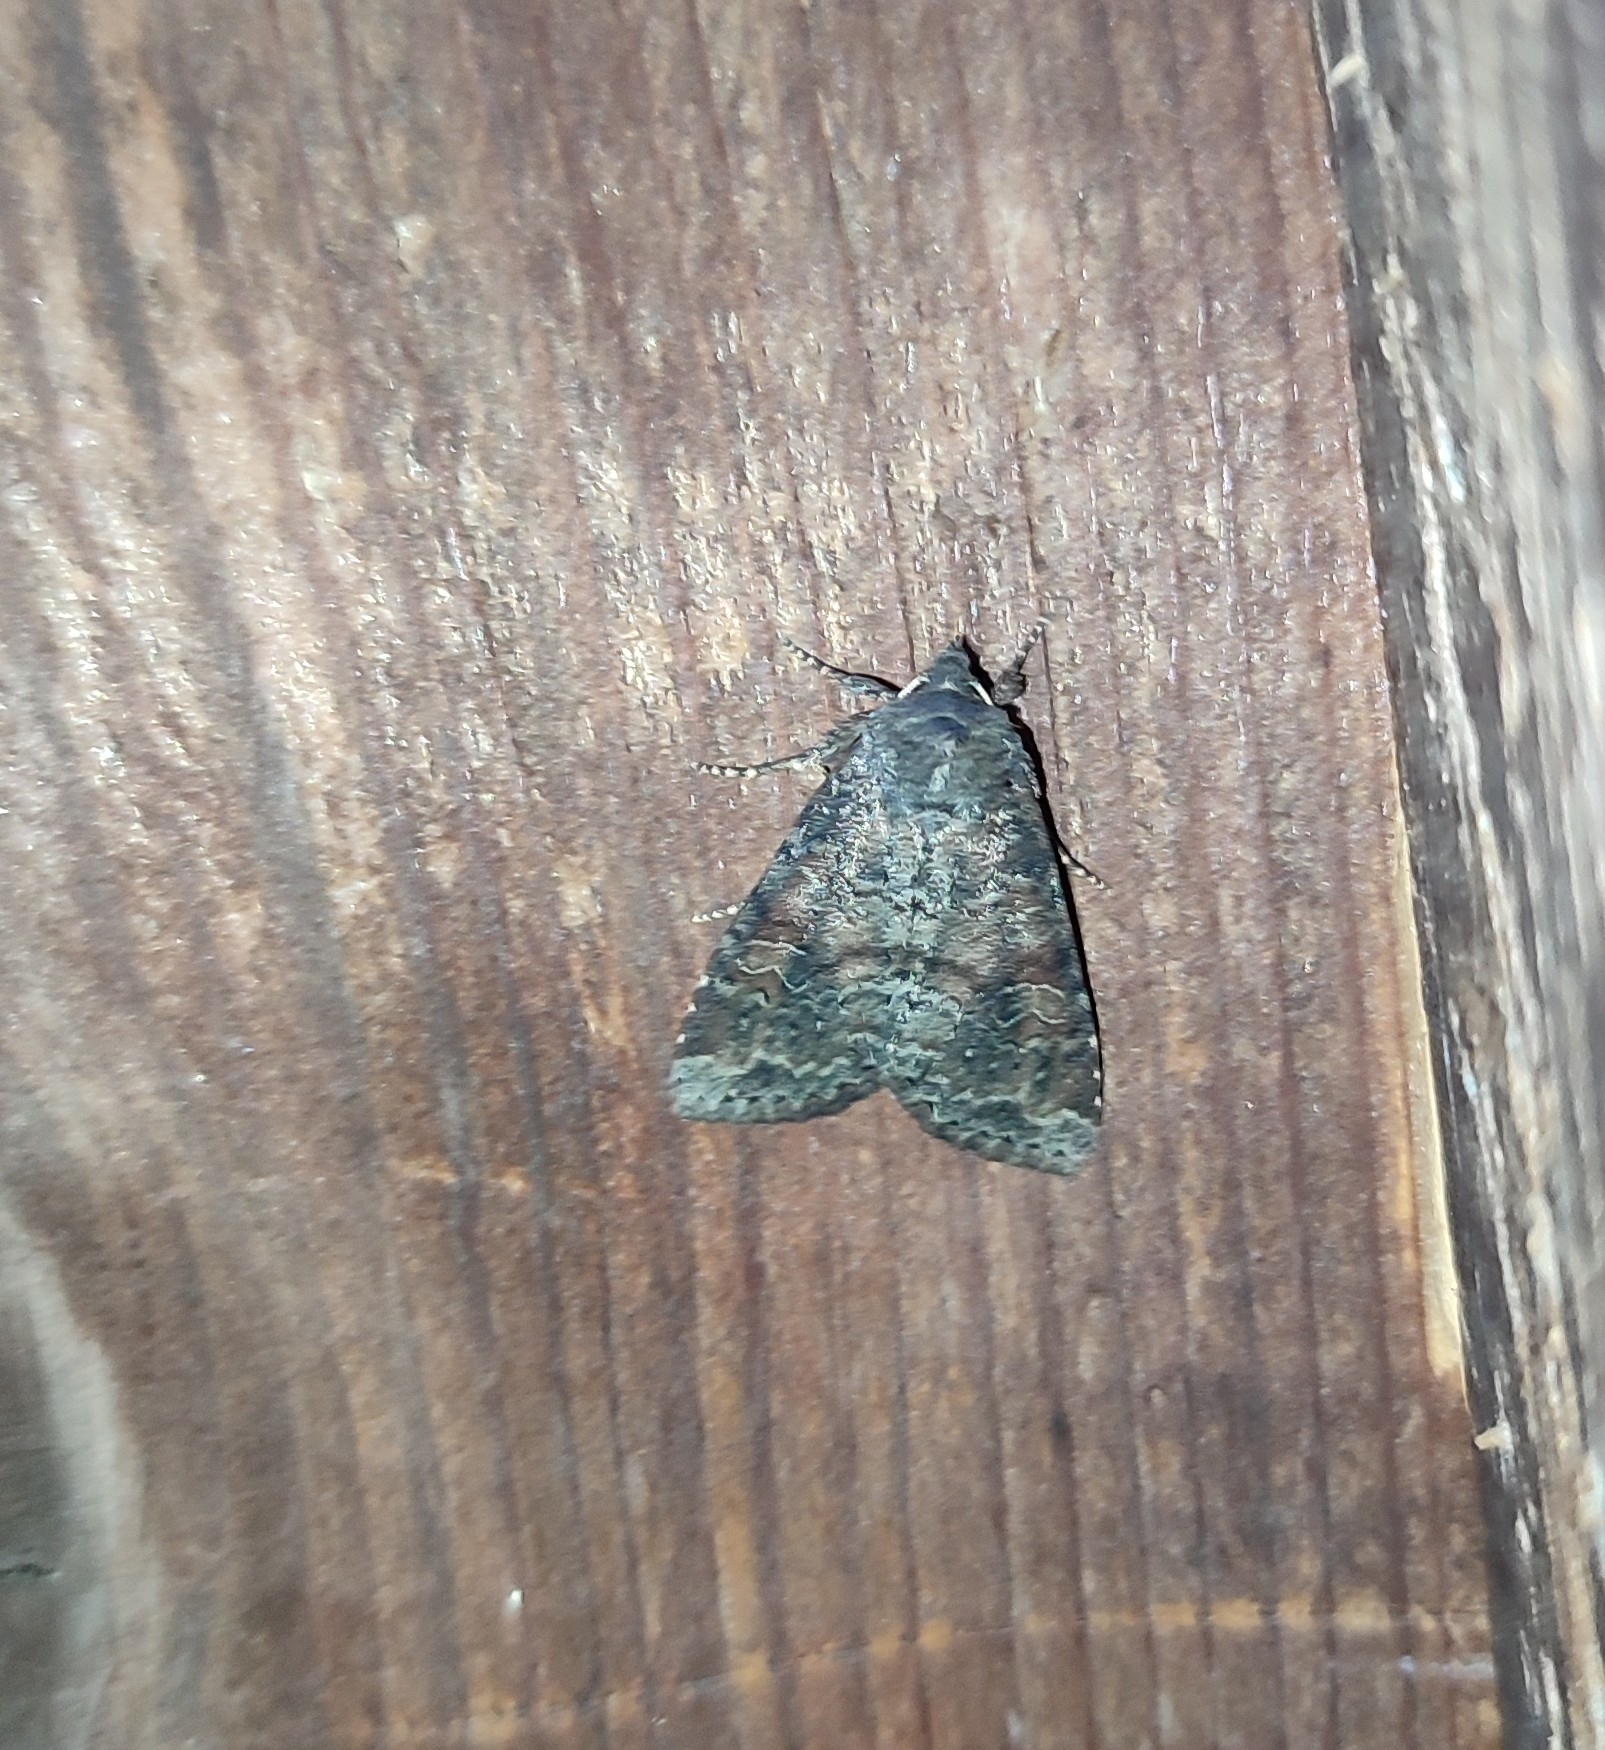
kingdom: Animalia
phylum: Arthropoda
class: Insecta
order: Lepidoptera
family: Noctuidae
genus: Parastichtis
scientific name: Parastichtis suspecta
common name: Suspected
